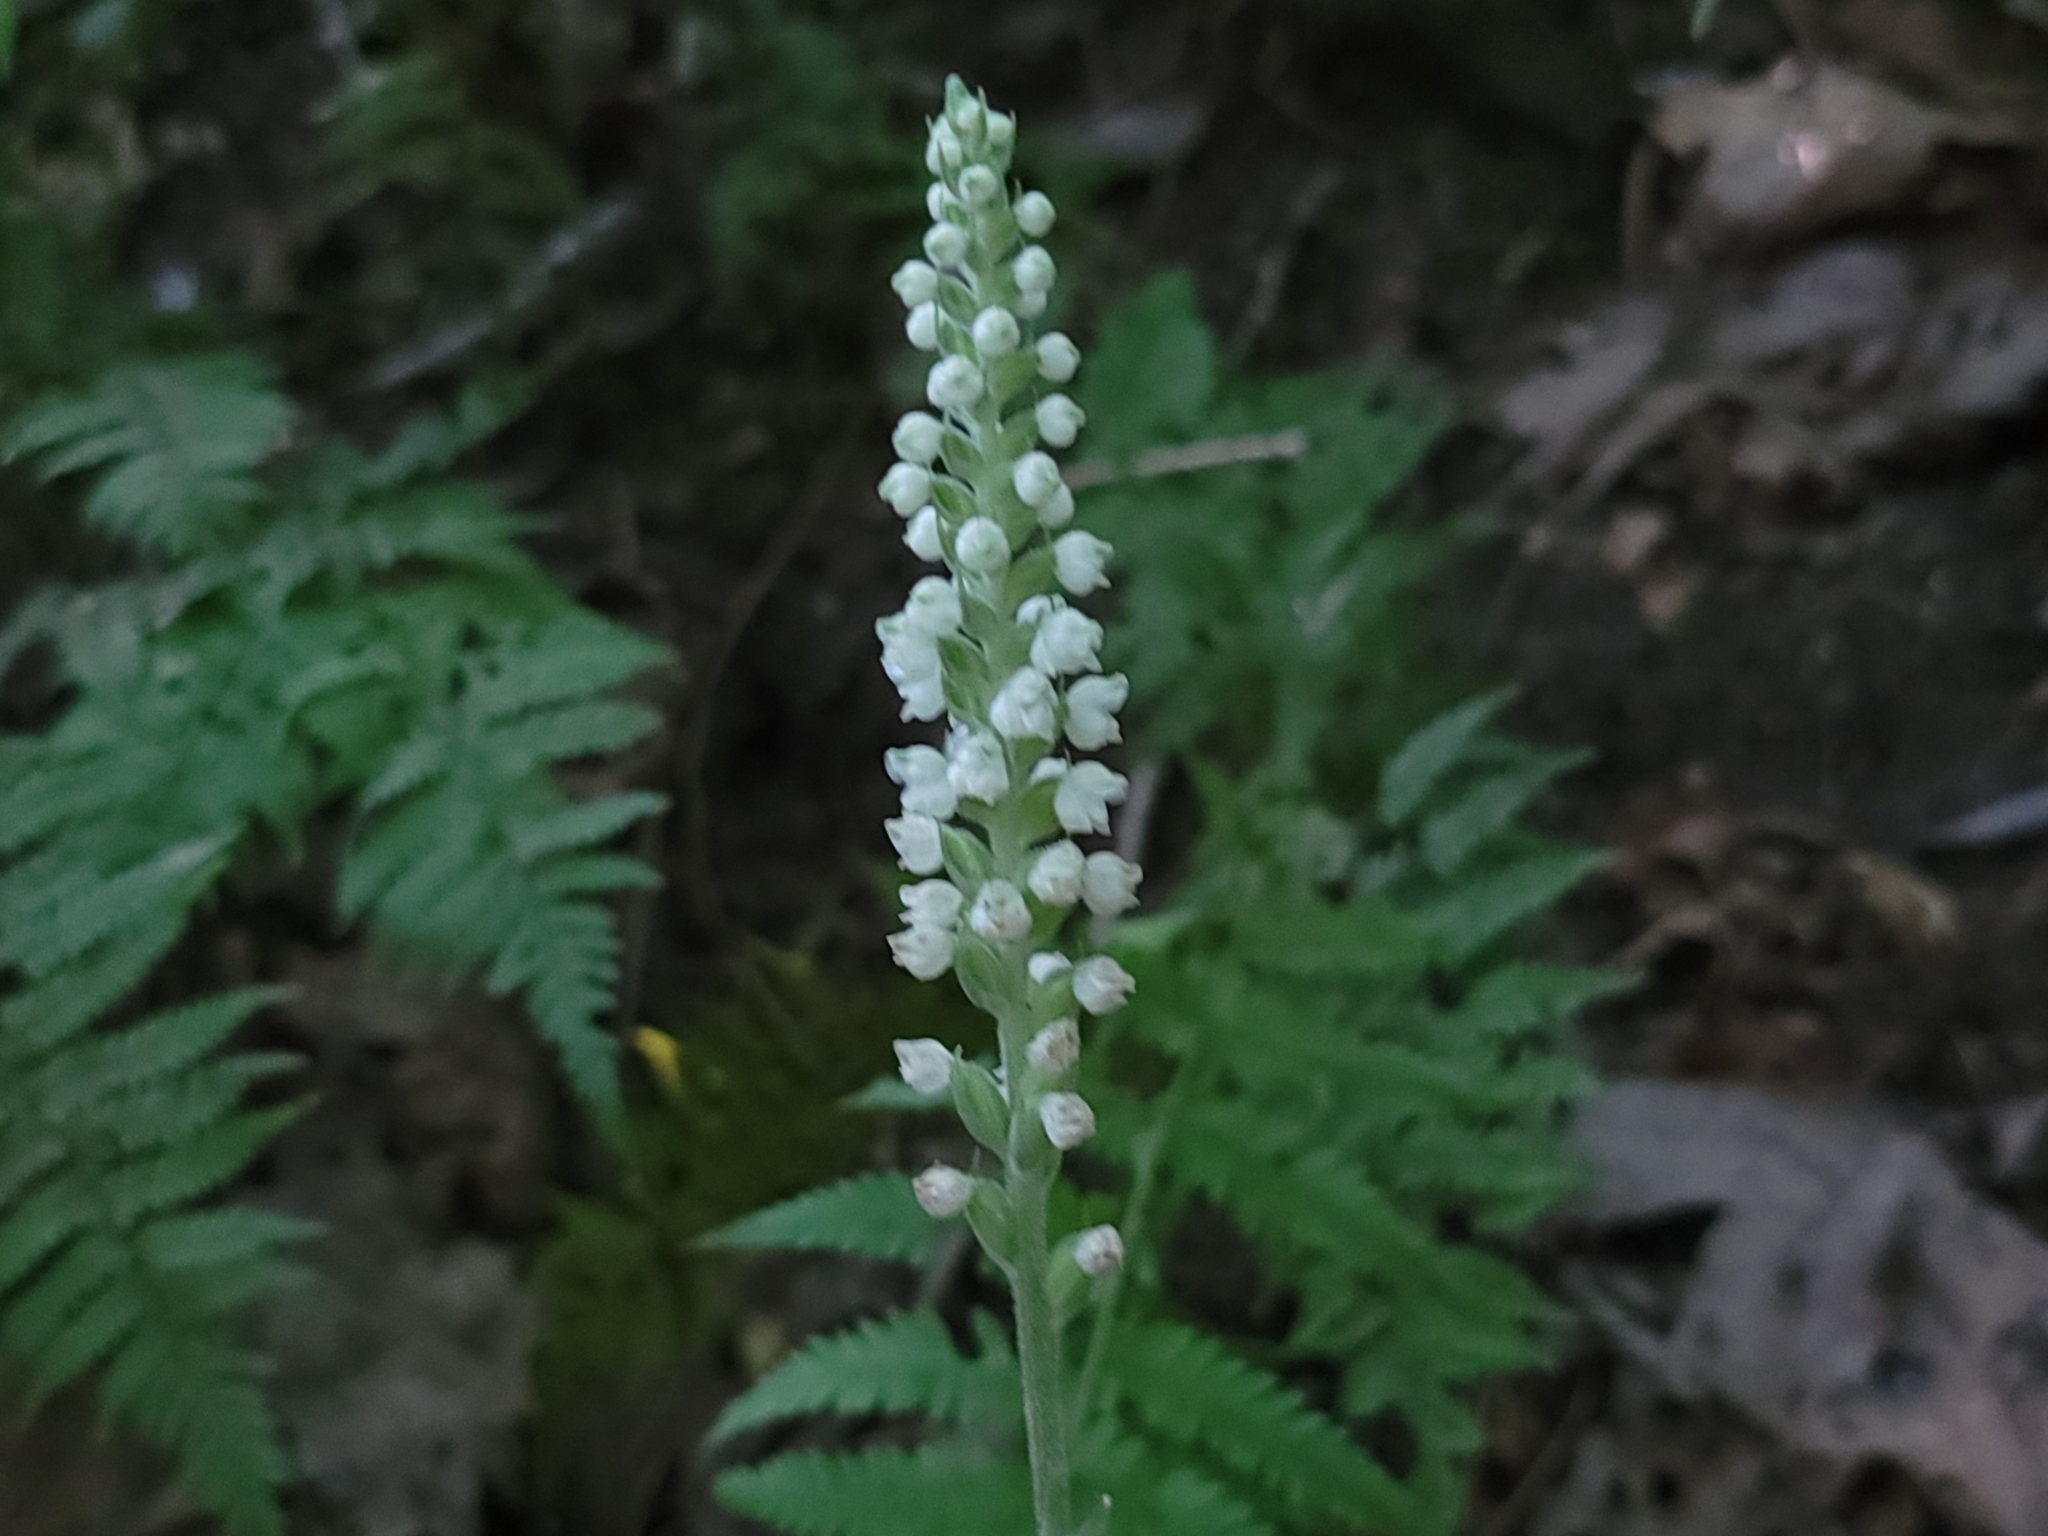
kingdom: Plantae
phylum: Tracheophyta
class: Liliopsida
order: Asparagales
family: Orchidaceae
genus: Goodyera
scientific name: Goodyera pubescens
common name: Downy rattlesnake-plantain
